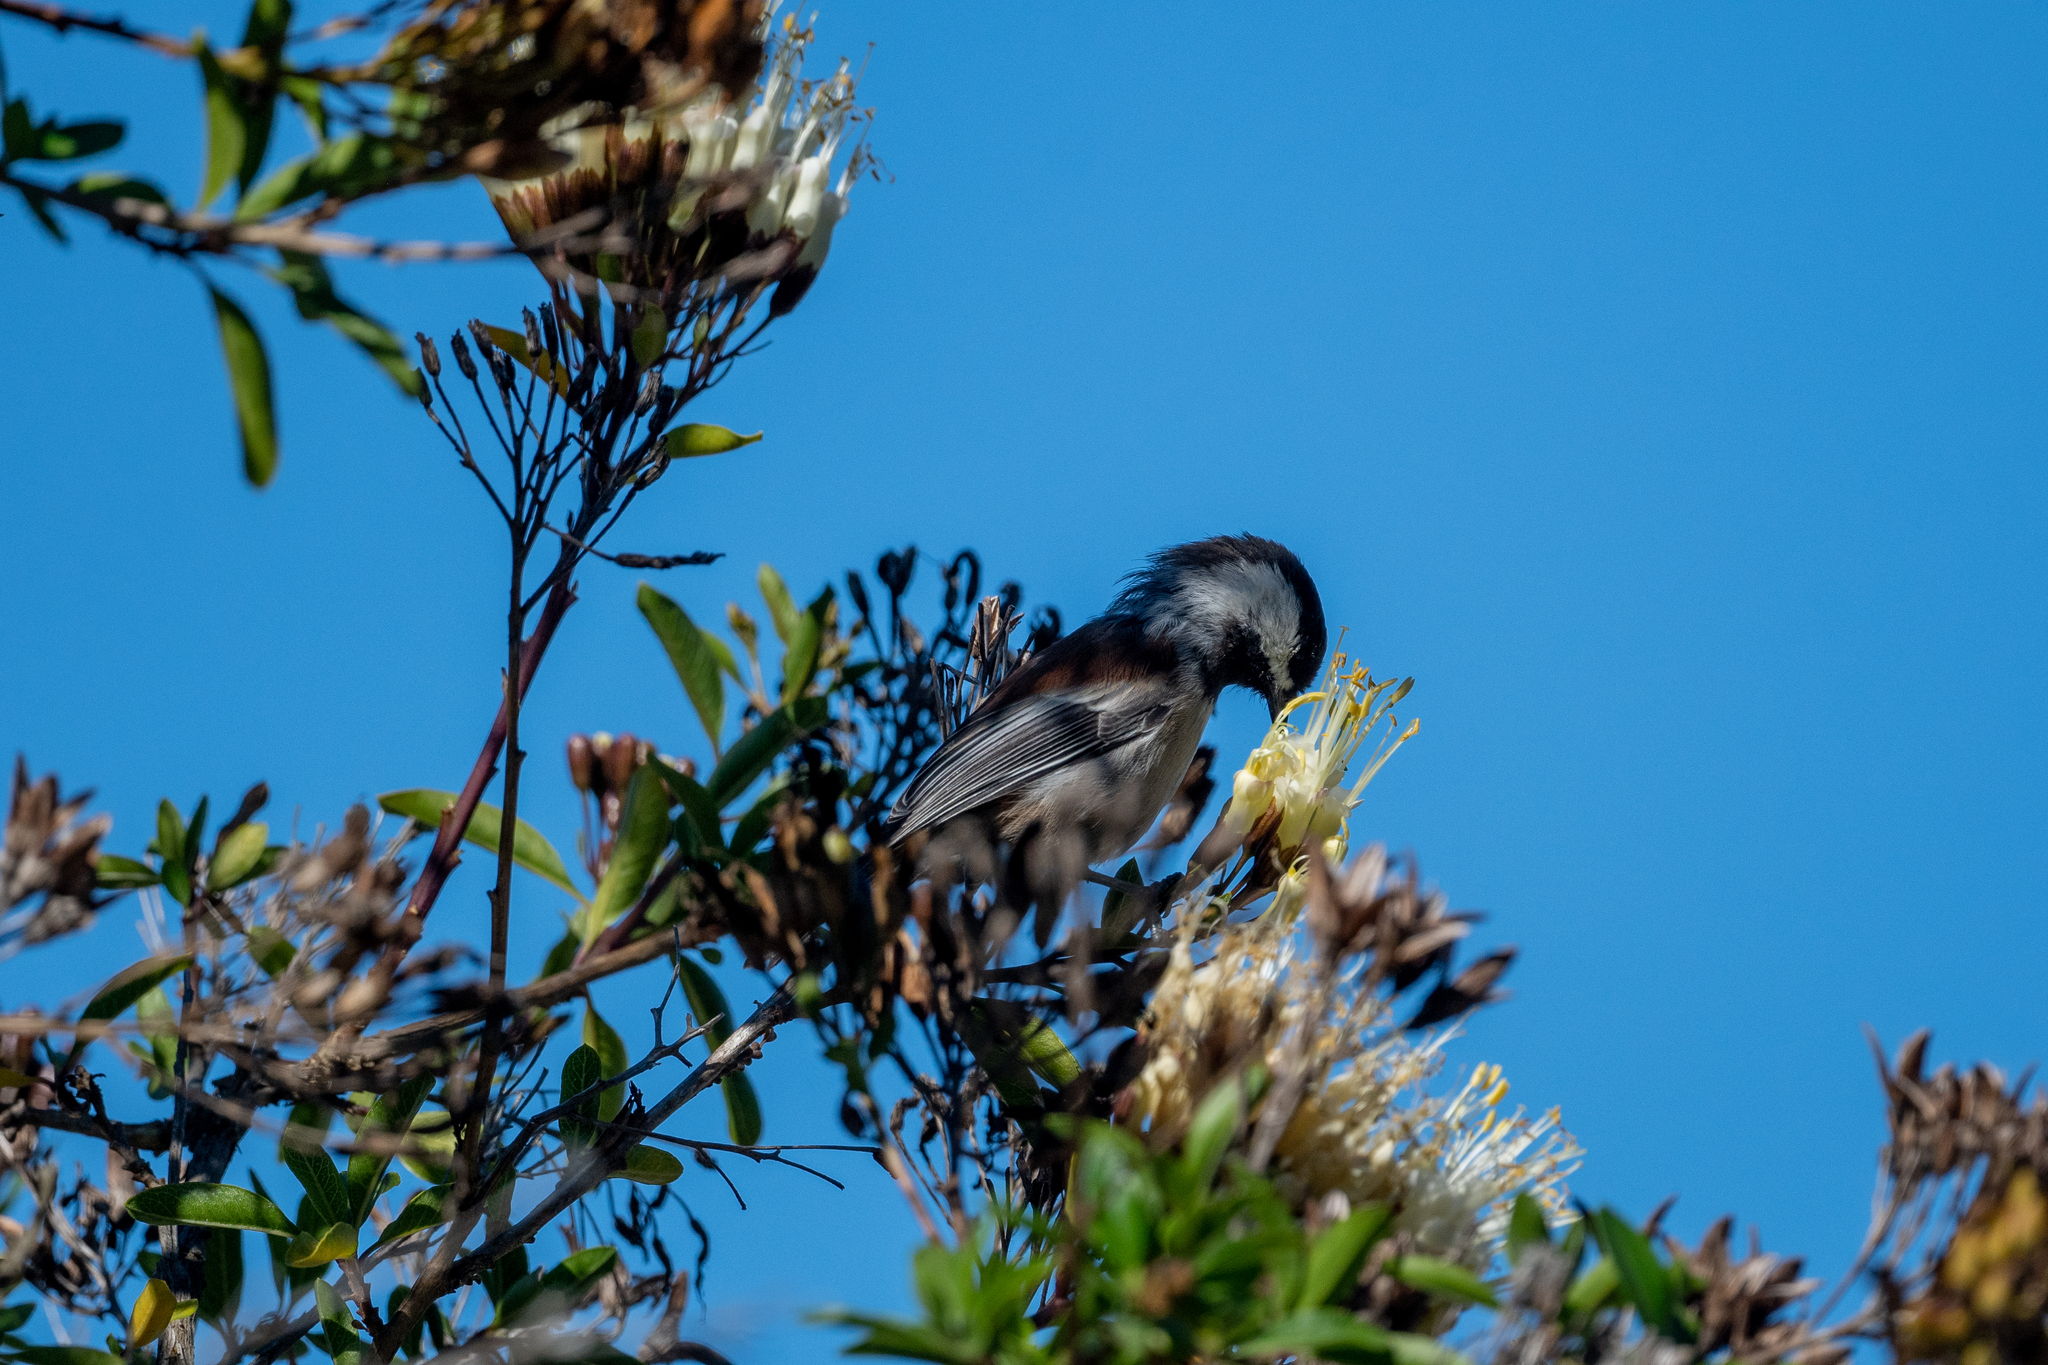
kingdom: Animalia
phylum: Chordata
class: Aves
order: Passeriformes
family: Paridae
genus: Poecile
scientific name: Poecile rufescens
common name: Chestnut-backed chickadee
